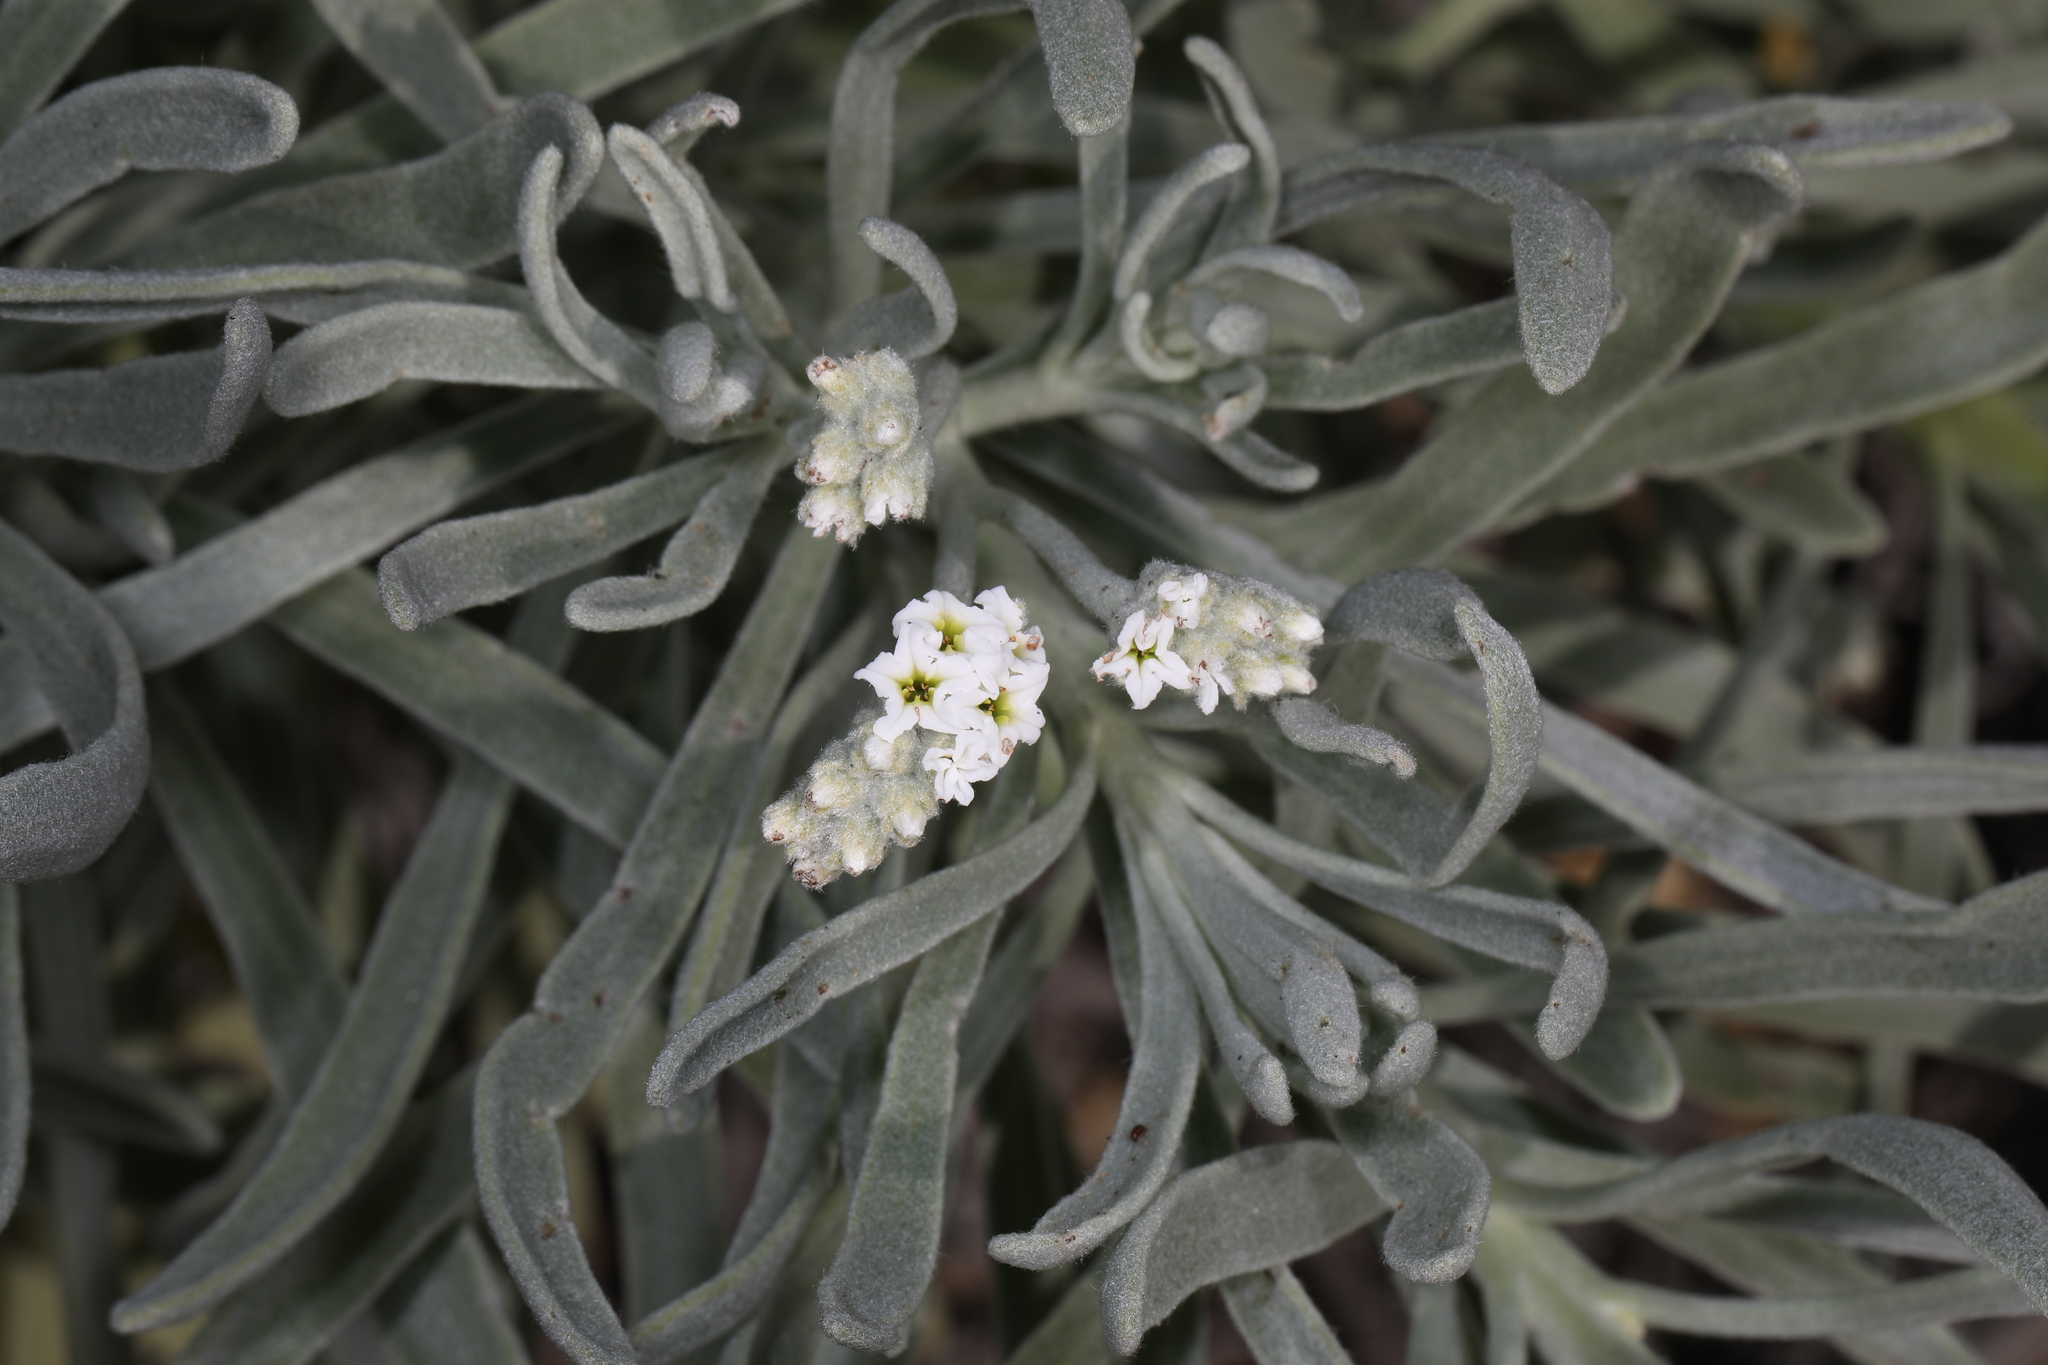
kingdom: Plantae
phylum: Tracheophyta
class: Magnoliopsida
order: Boraginales
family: Heliotropiaceae
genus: Tournefortia
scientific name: Tournefortia gnaphalodes
